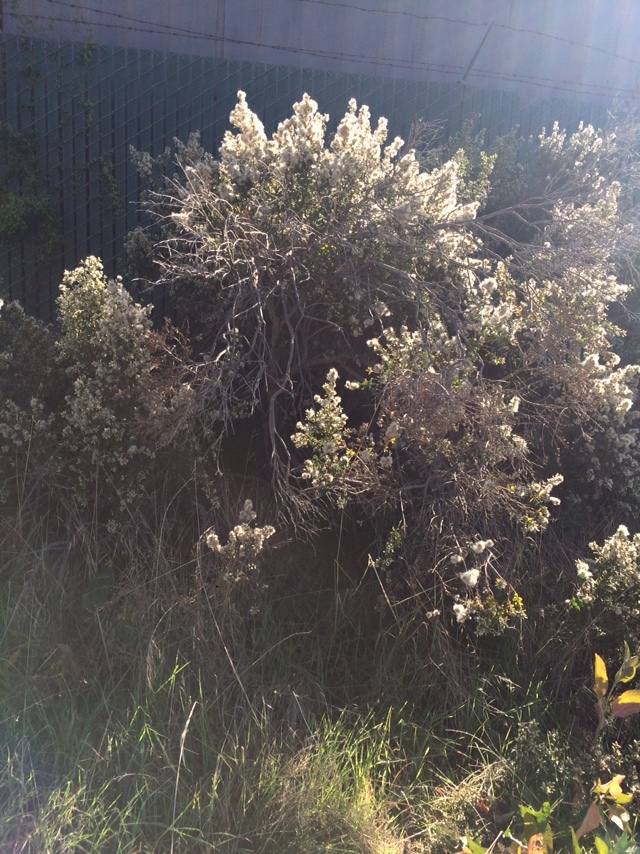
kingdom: Plantae
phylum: Tracheophyta
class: Magnoliopsida
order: Asterales
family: Asteraceae
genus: Baccharis
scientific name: Baccharis pilularis
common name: Coyotebrush
